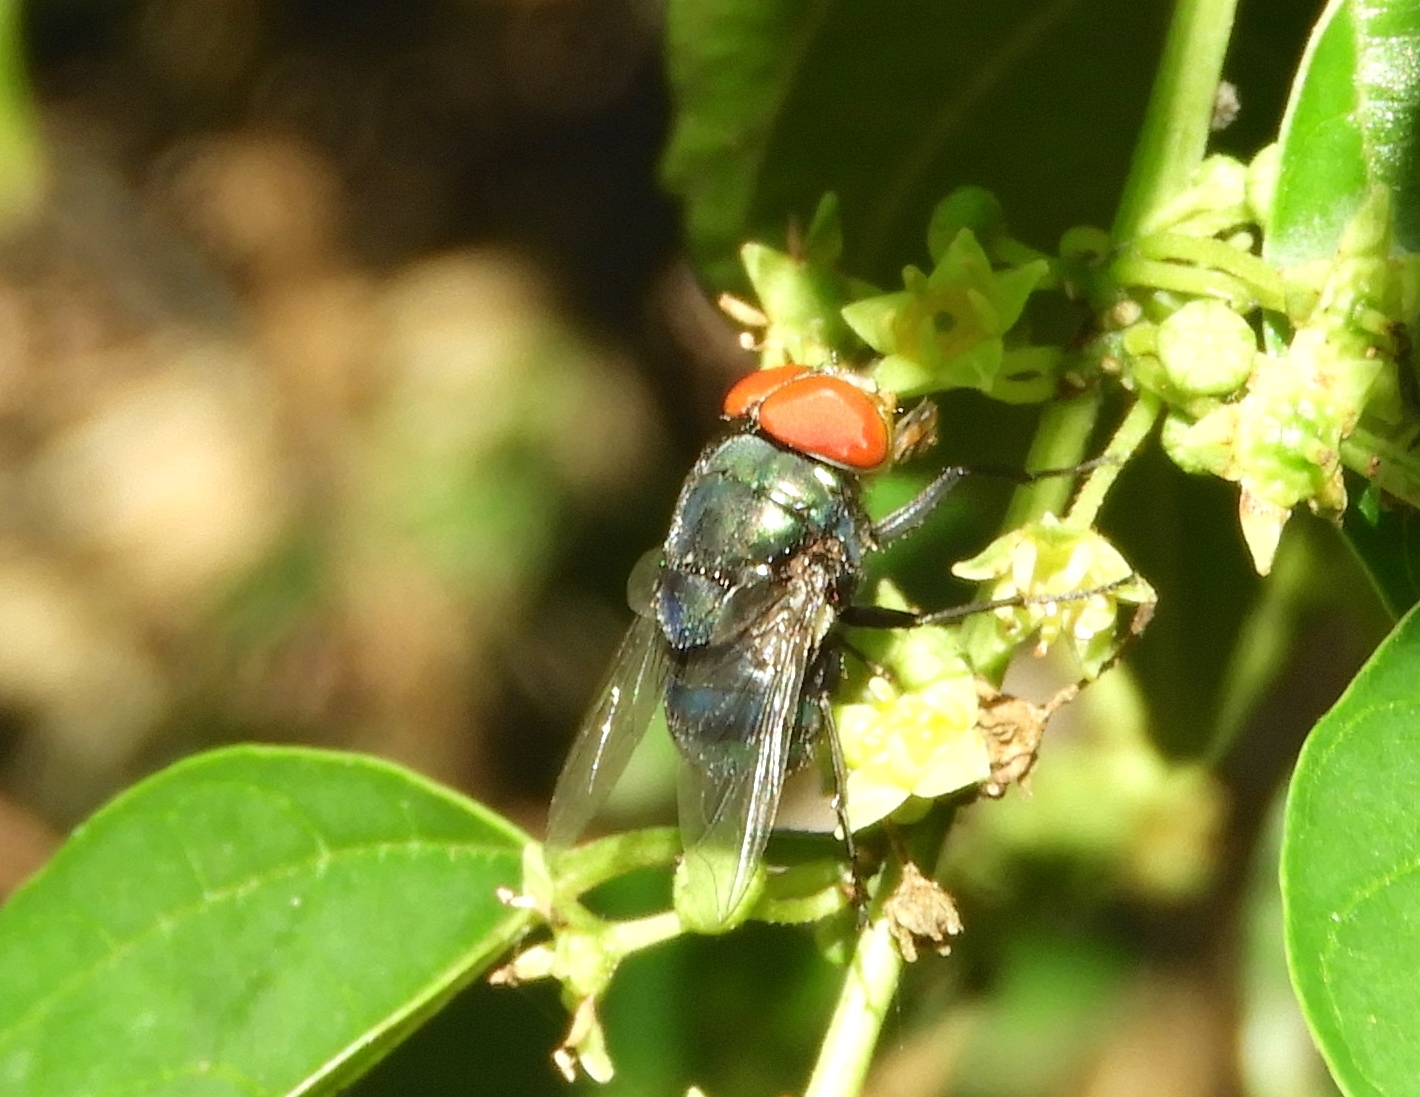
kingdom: Animalia
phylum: Arthropoda
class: Insecta
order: Diptera
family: Calliphoridae
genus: Chrysomya
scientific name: Chrysomya megacephala
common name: Blow fly
